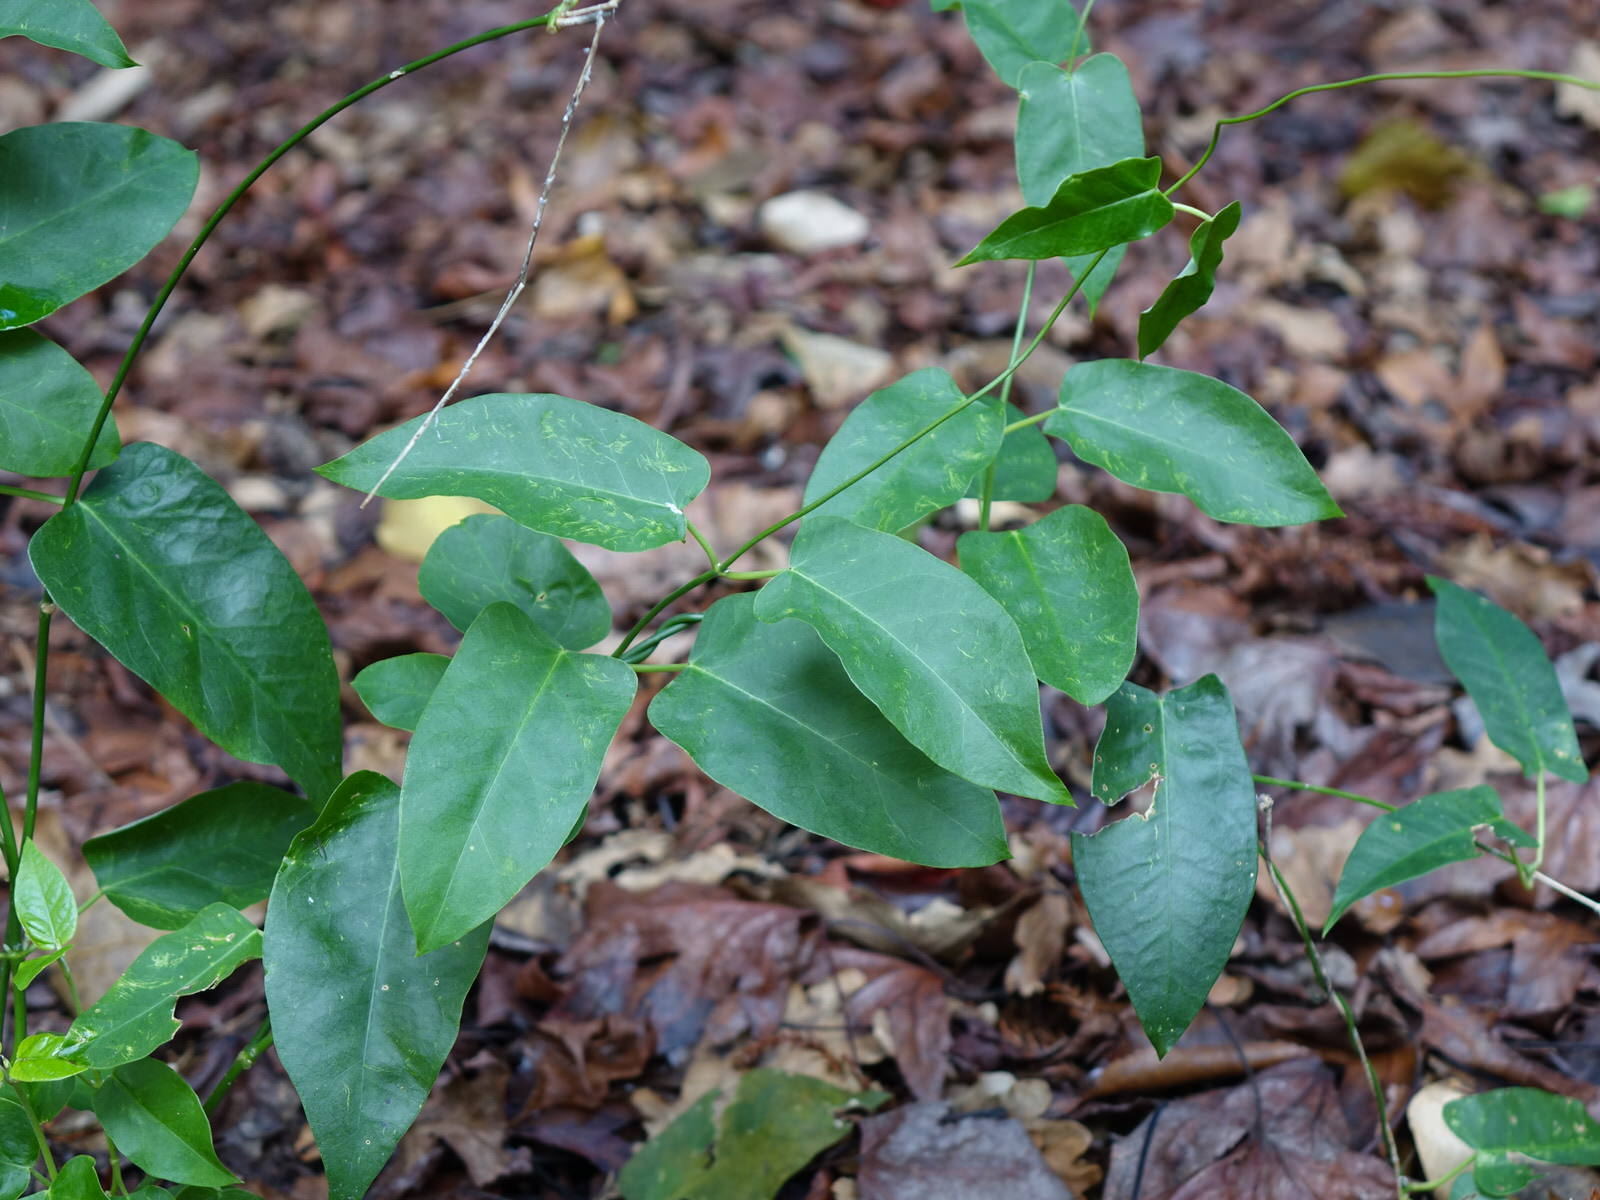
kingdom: Plantae
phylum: Tracheophyta
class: Magnoliopsida
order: Gentianales
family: Apocynaceae
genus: Araujia
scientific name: Araujia sericifera
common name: White bladderflower
